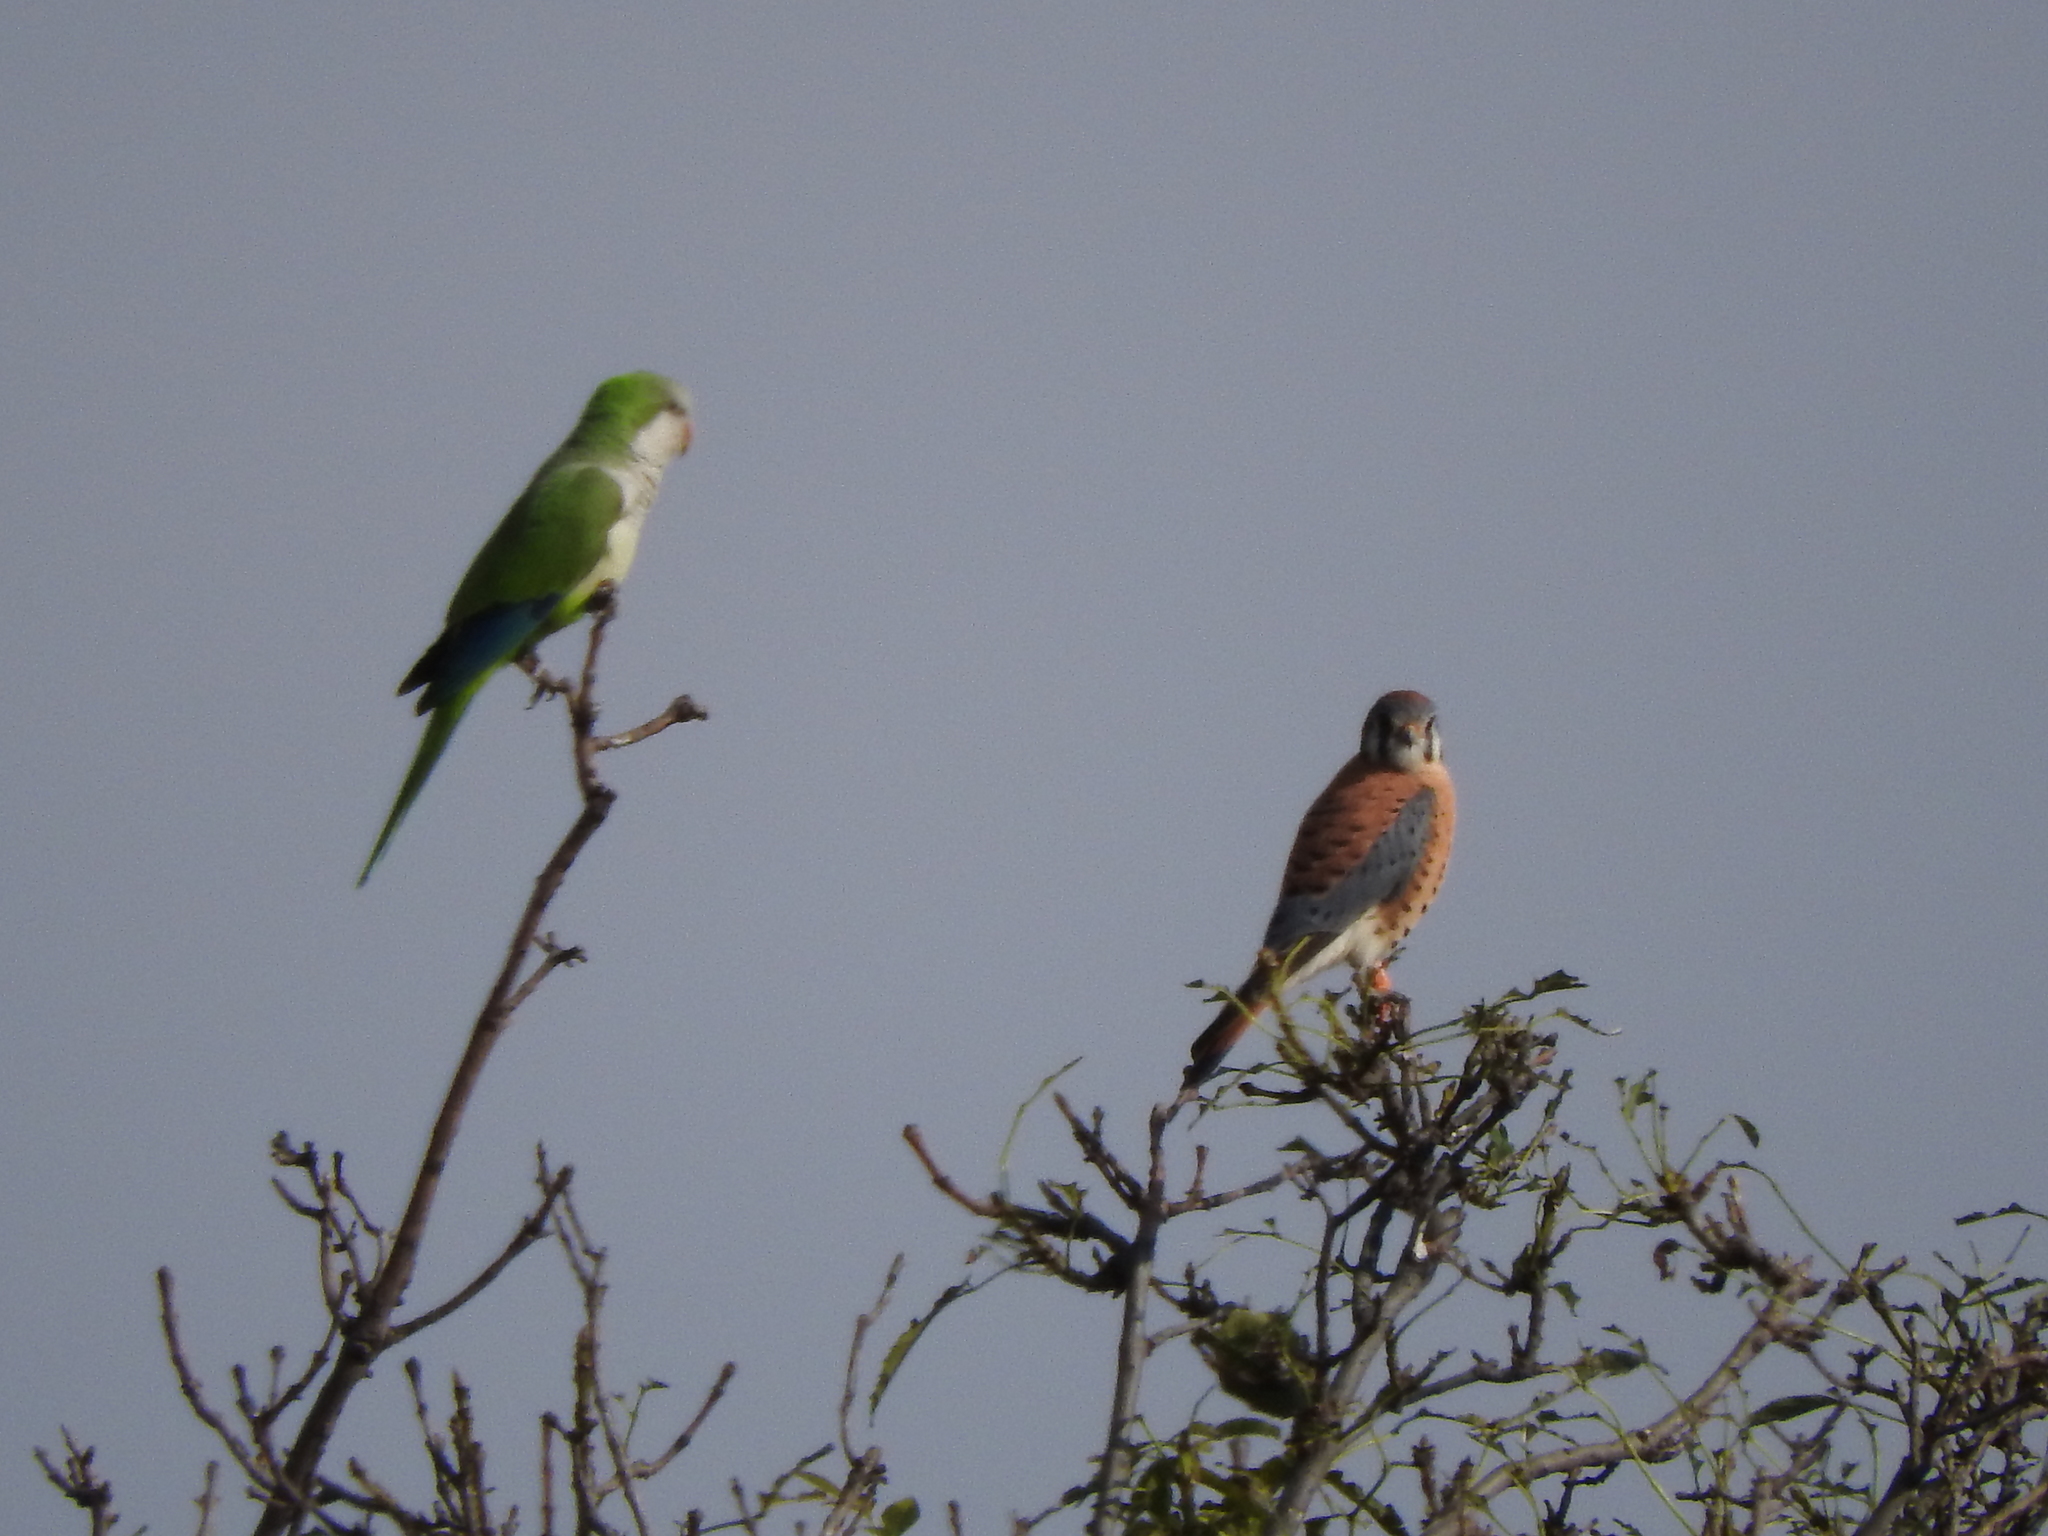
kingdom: Animalia
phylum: Chordata
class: Aves
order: Falconiformes
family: Falconidae
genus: Falco
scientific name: Falco sparverius
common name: American kestrel
